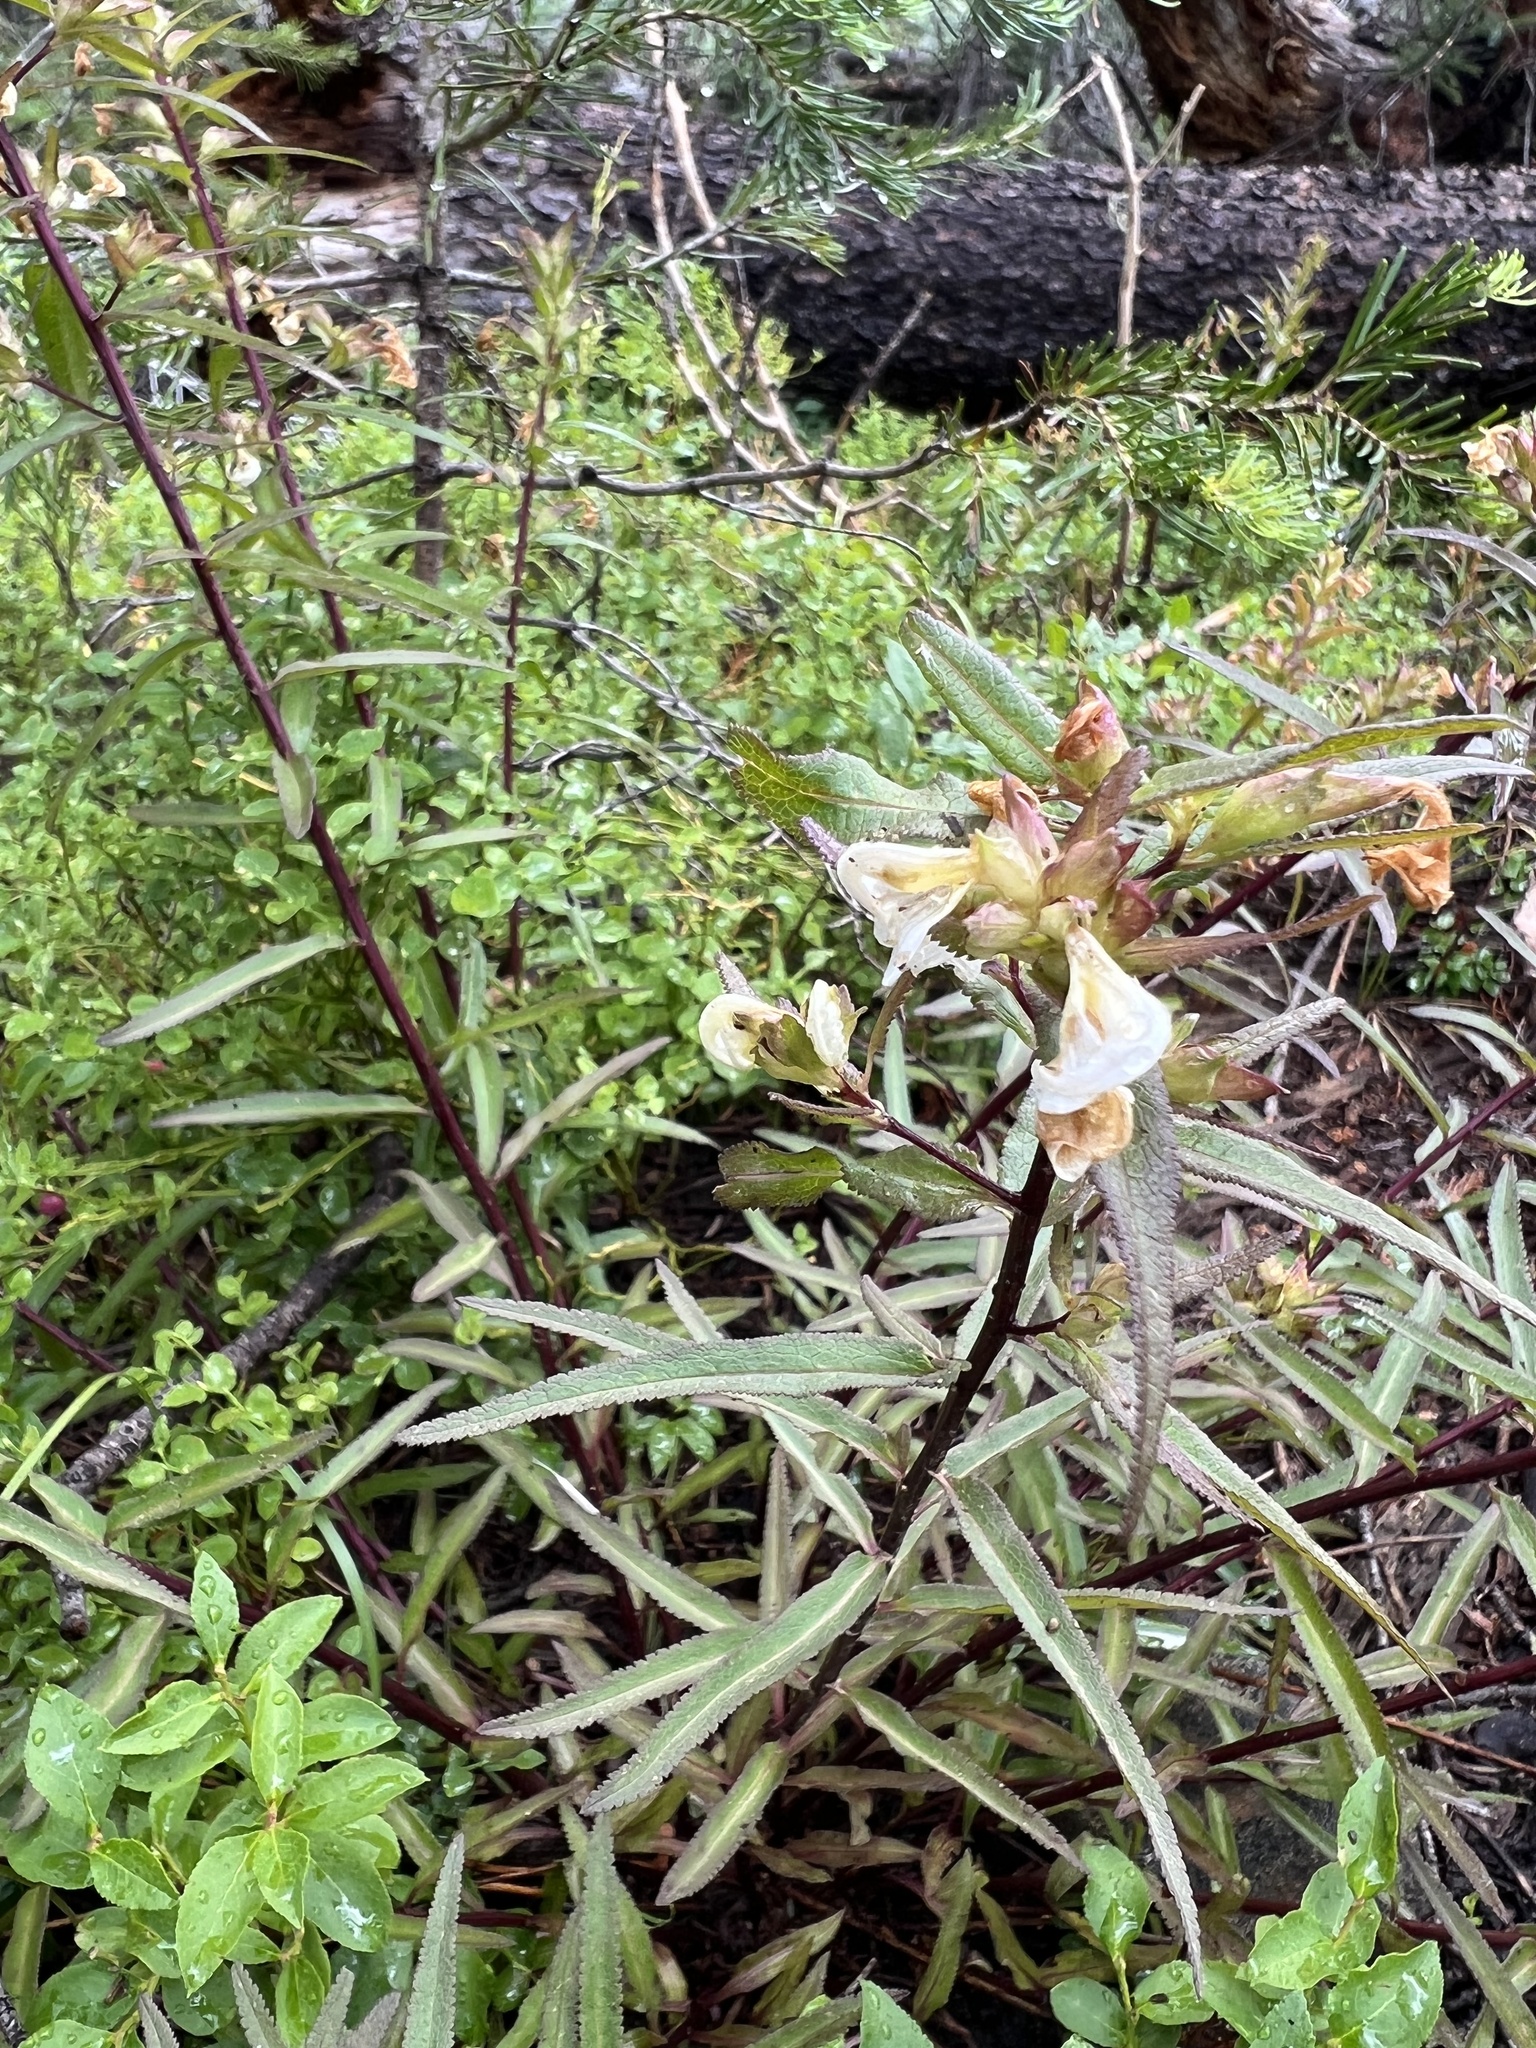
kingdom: Plantae
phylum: Tracheophyta
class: Magnoliopsida
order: Lamiales
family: Orobanchaceae
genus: Pedicularis
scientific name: Pedicularis racemosa
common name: Leafy lousewort
